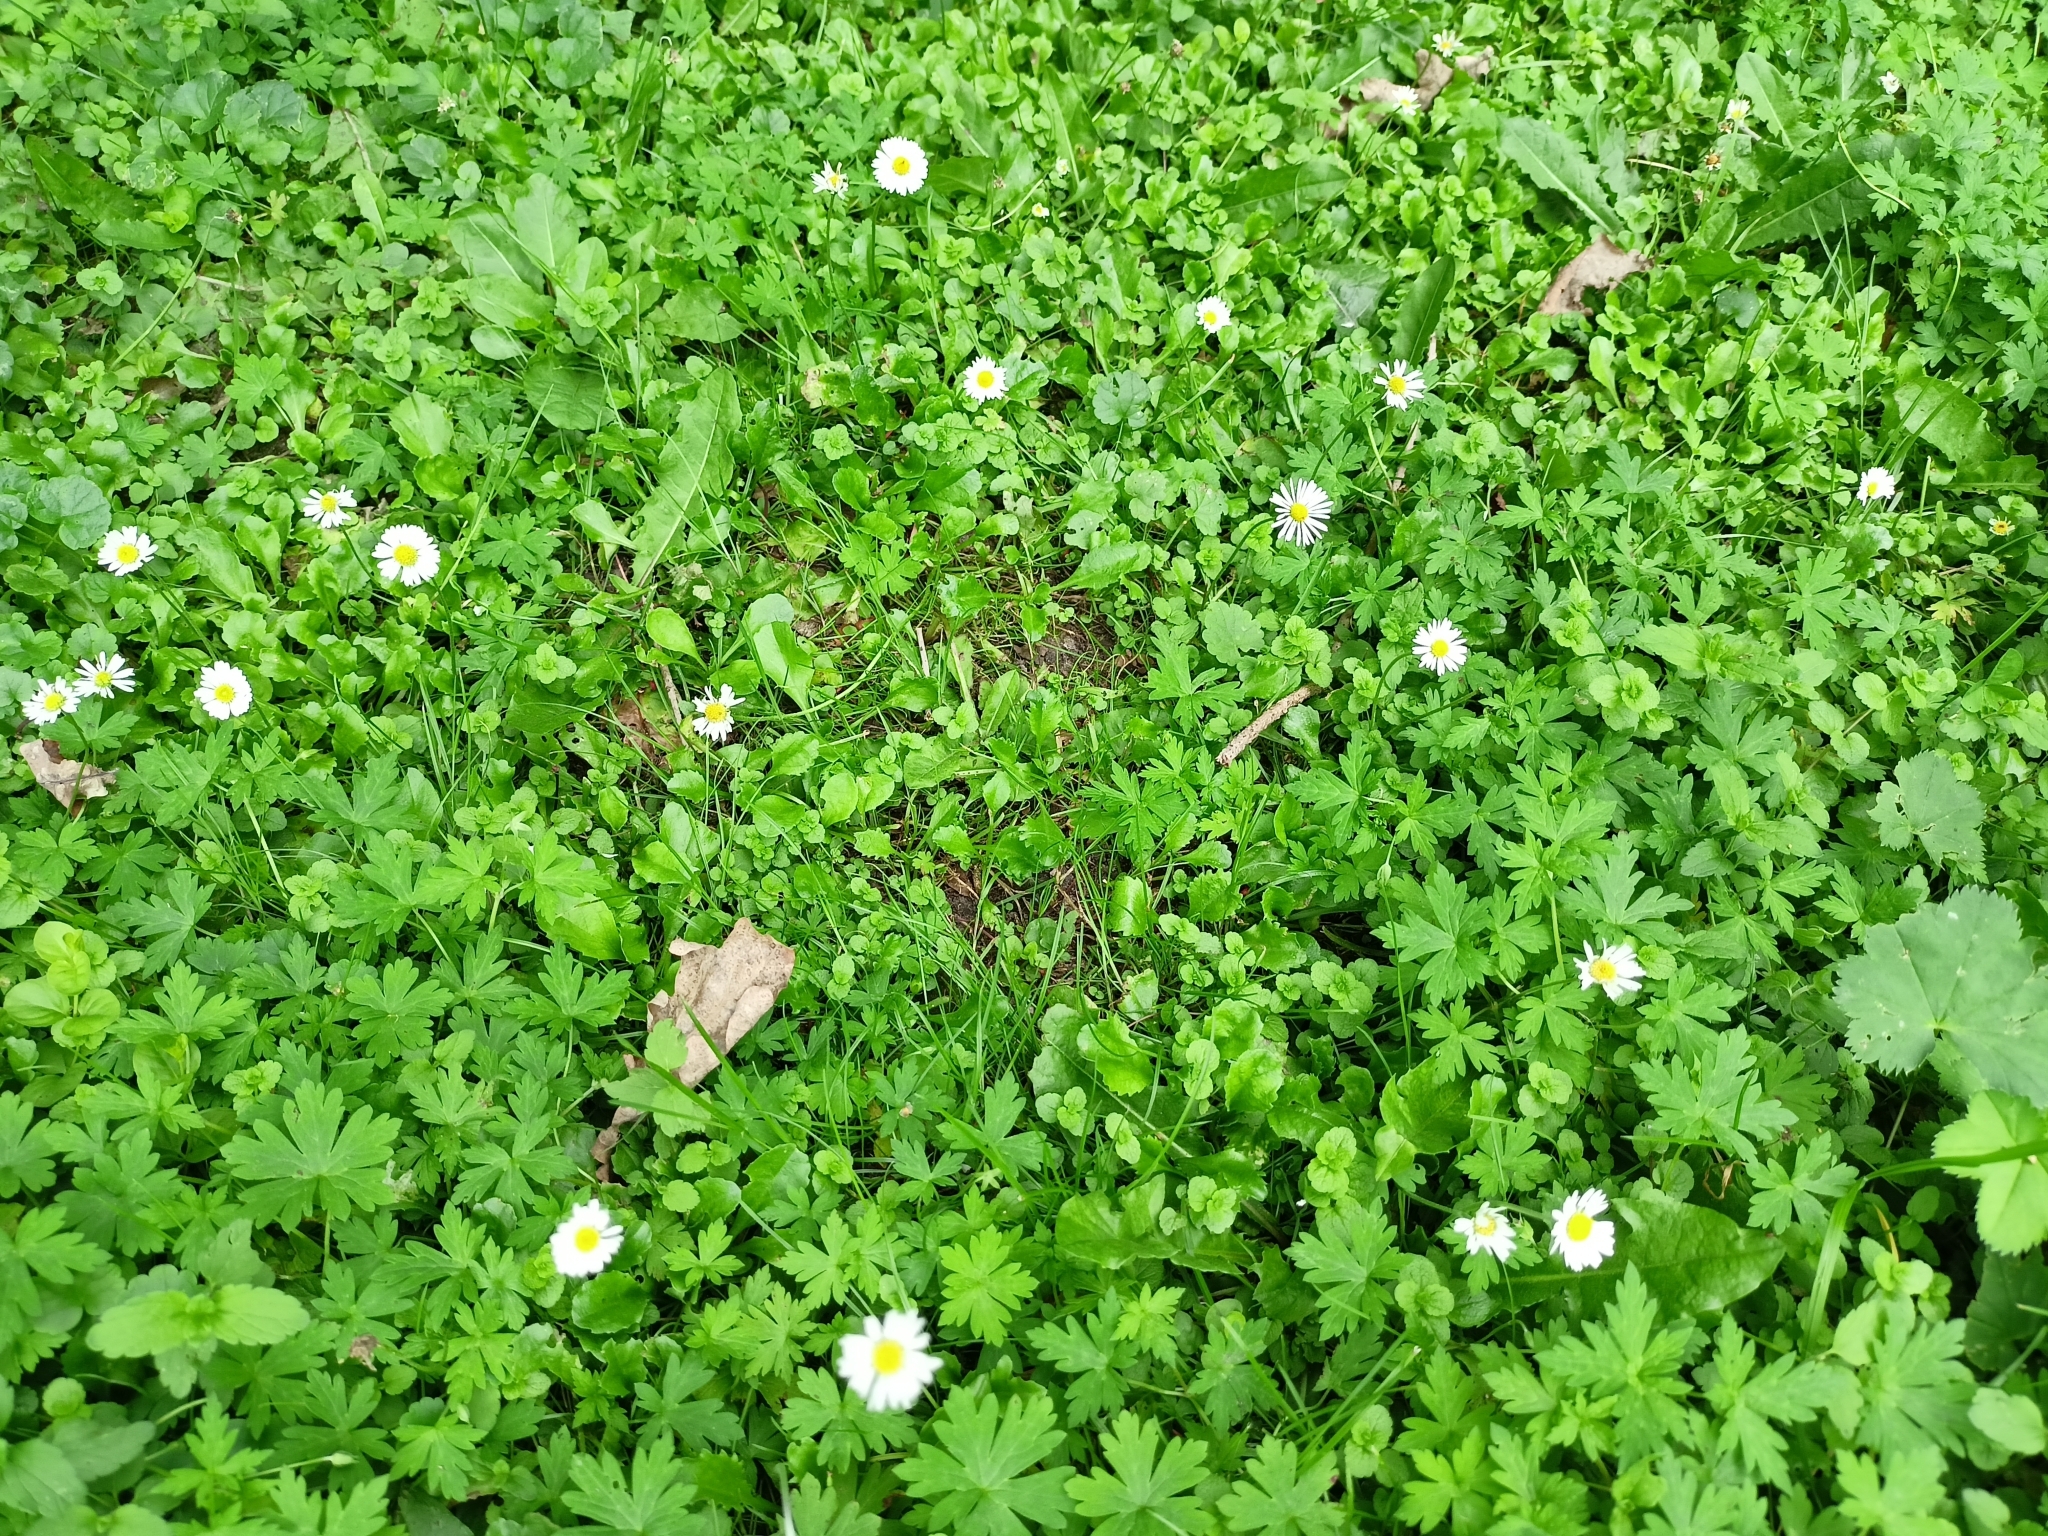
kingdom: Plantae
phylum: Tracheophyta
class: Magnoliopsida
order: Asterales
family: Asteraceae
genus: Bellis
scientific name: Bellis perennis
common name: Lawndaisy
